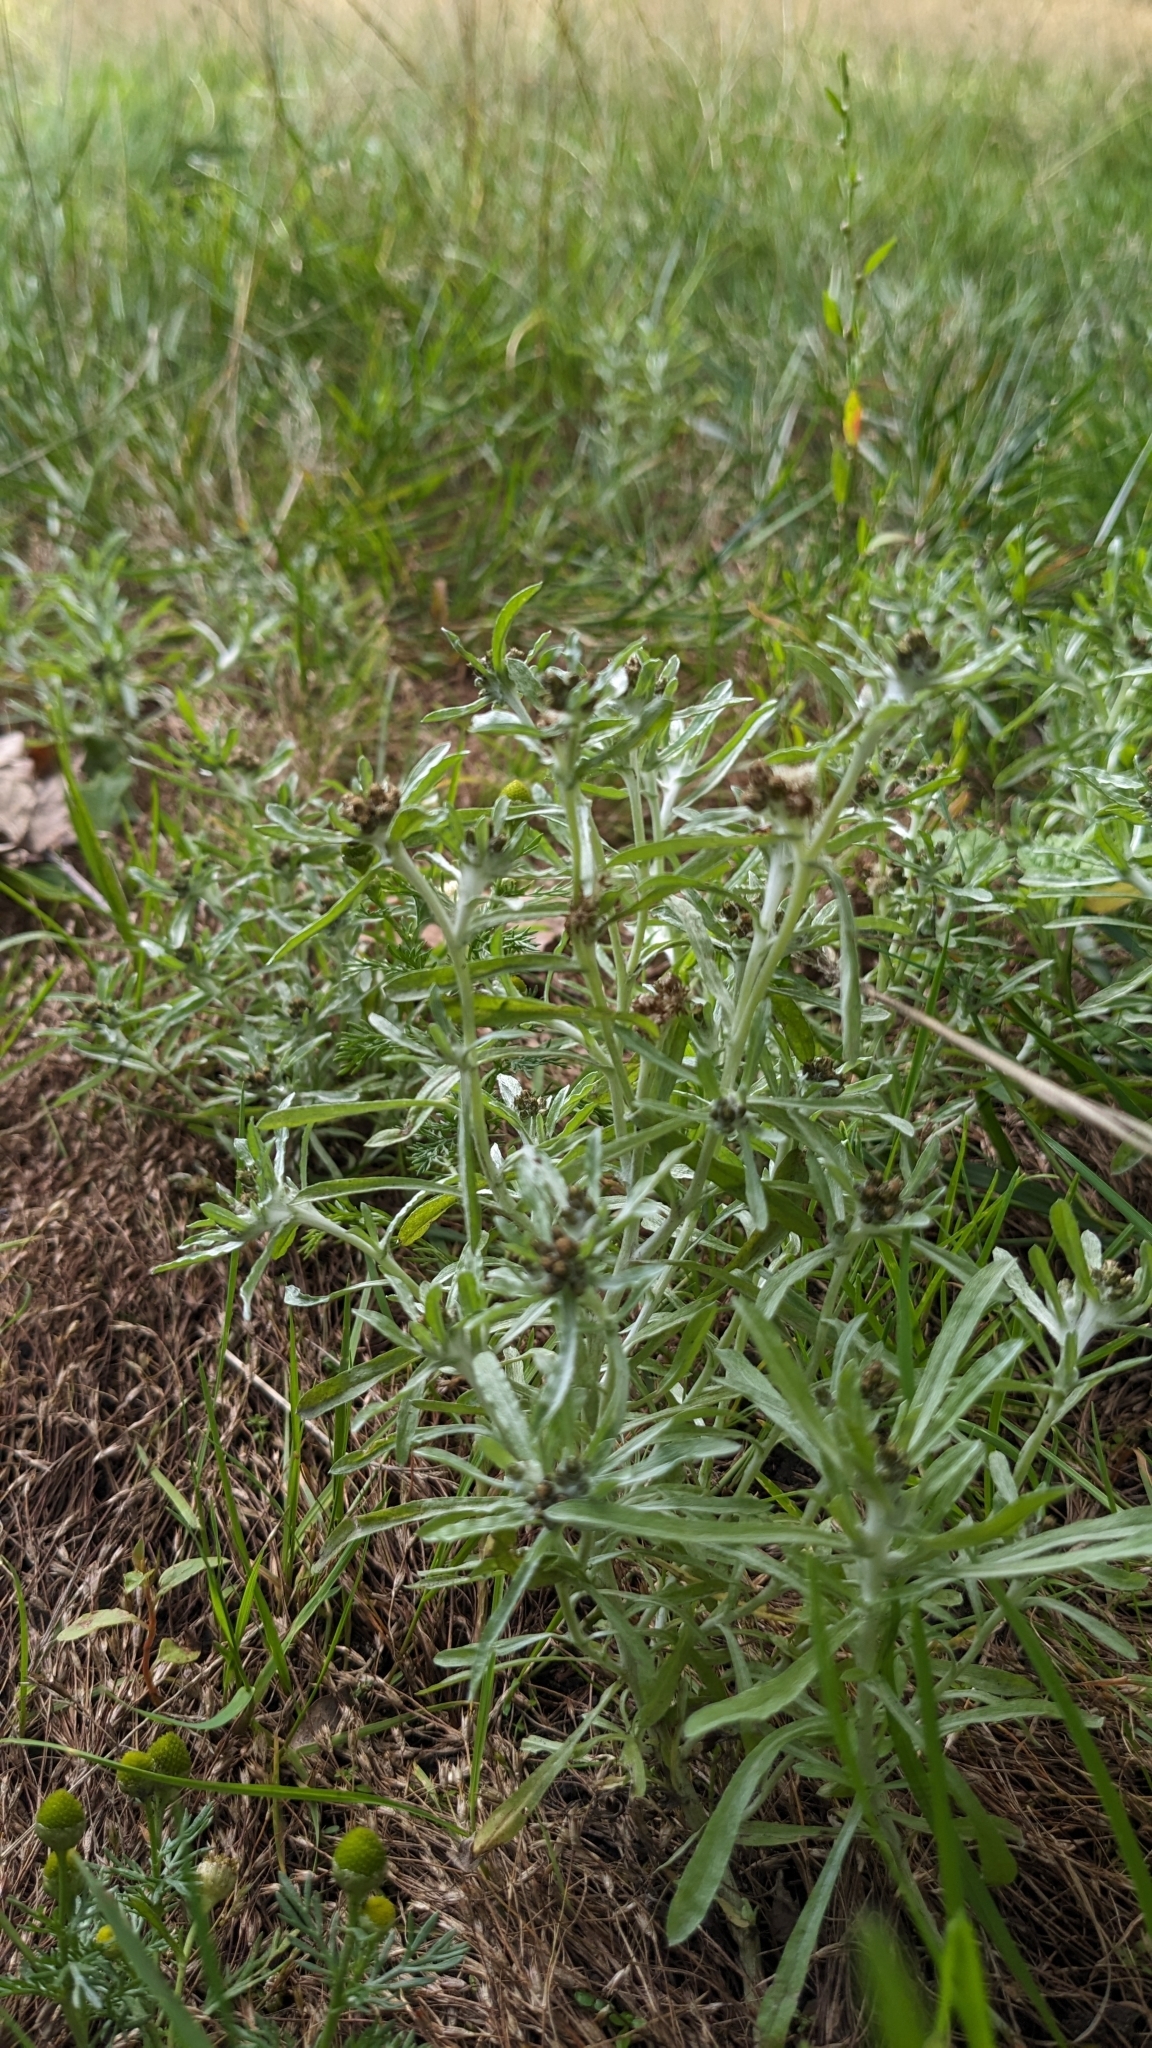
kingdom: Plantae
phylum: Tracheophyta
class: Magnoliopsida
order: Asterales
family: Asteraceae
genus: Gnaphalium
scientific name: Gnaphalium uliginosum
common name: Marsh cudweed
